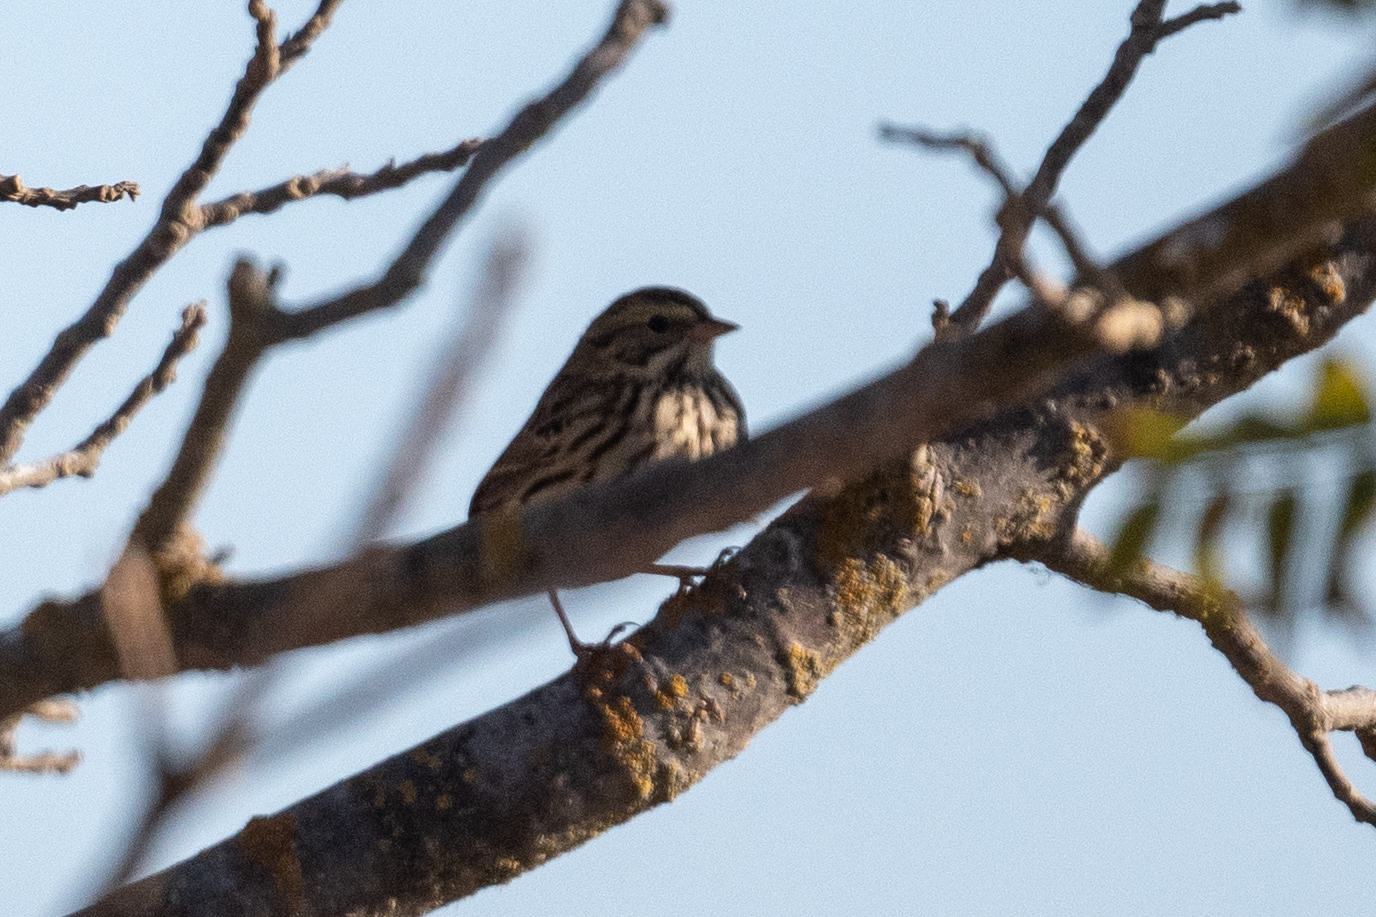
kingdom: Animalia
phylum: Chordata
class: Aves
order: Passeriformes
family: Passerellidae
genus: Passerculus
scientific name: Passerculus sandwichensis
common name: Savannah sparrow
